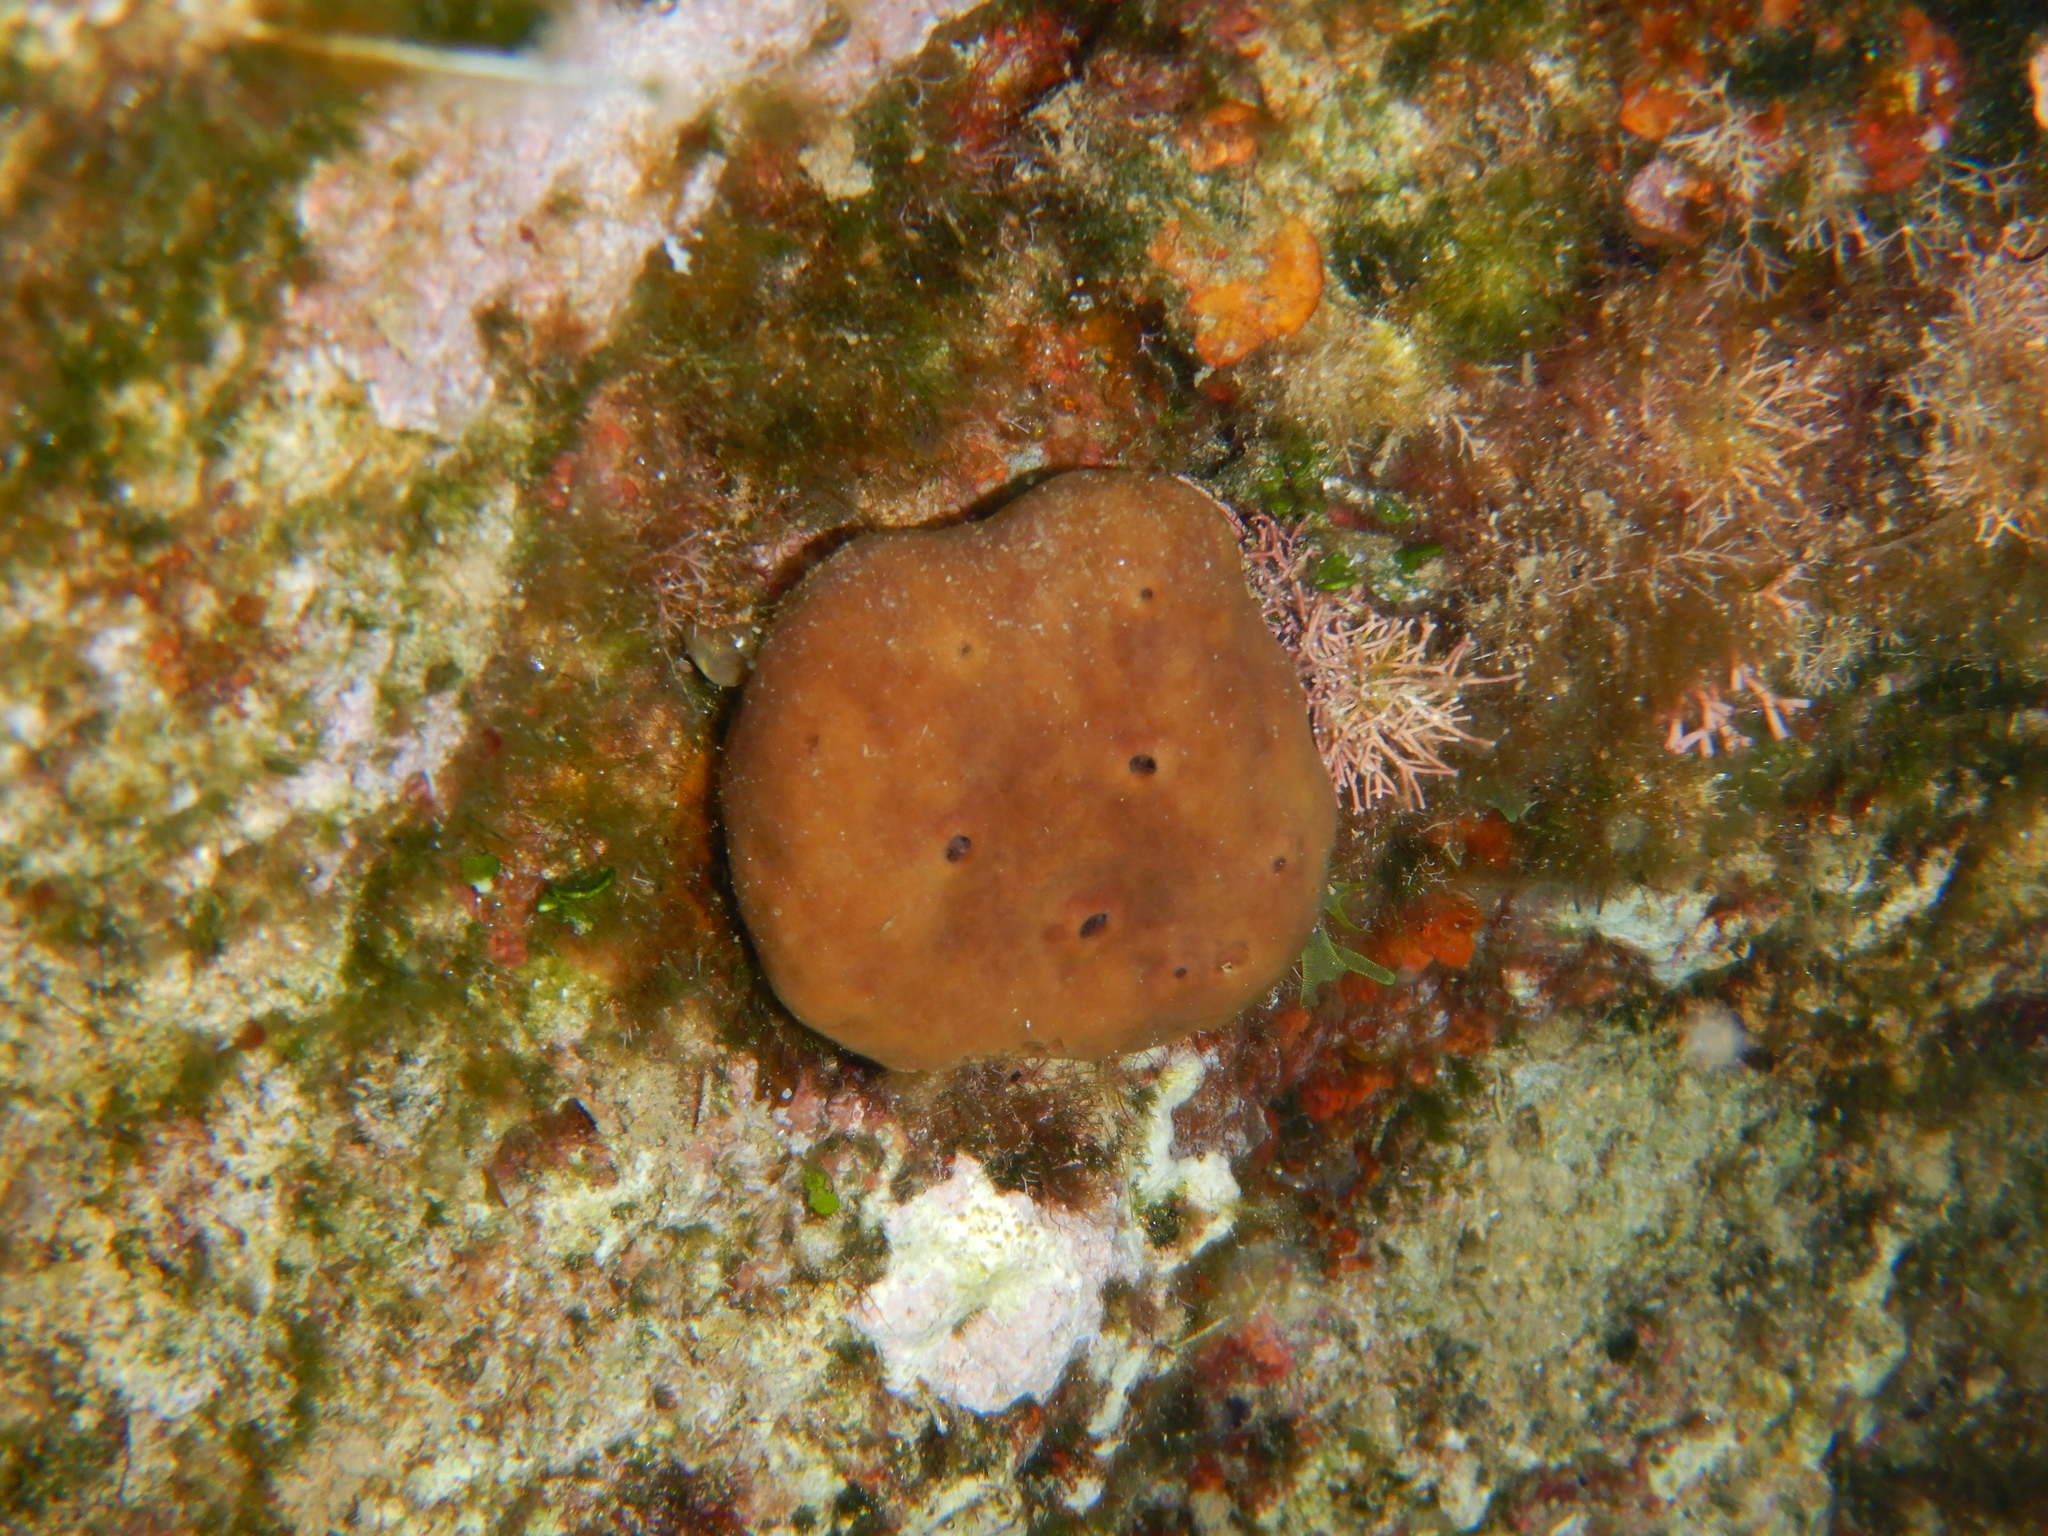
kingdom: Animalia
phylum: Porifera
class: Demospongiae
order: Haplosclerida
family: Petrosiidae
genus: Petrosia
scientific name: Petrosia ficiformis
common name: Stony sponge
